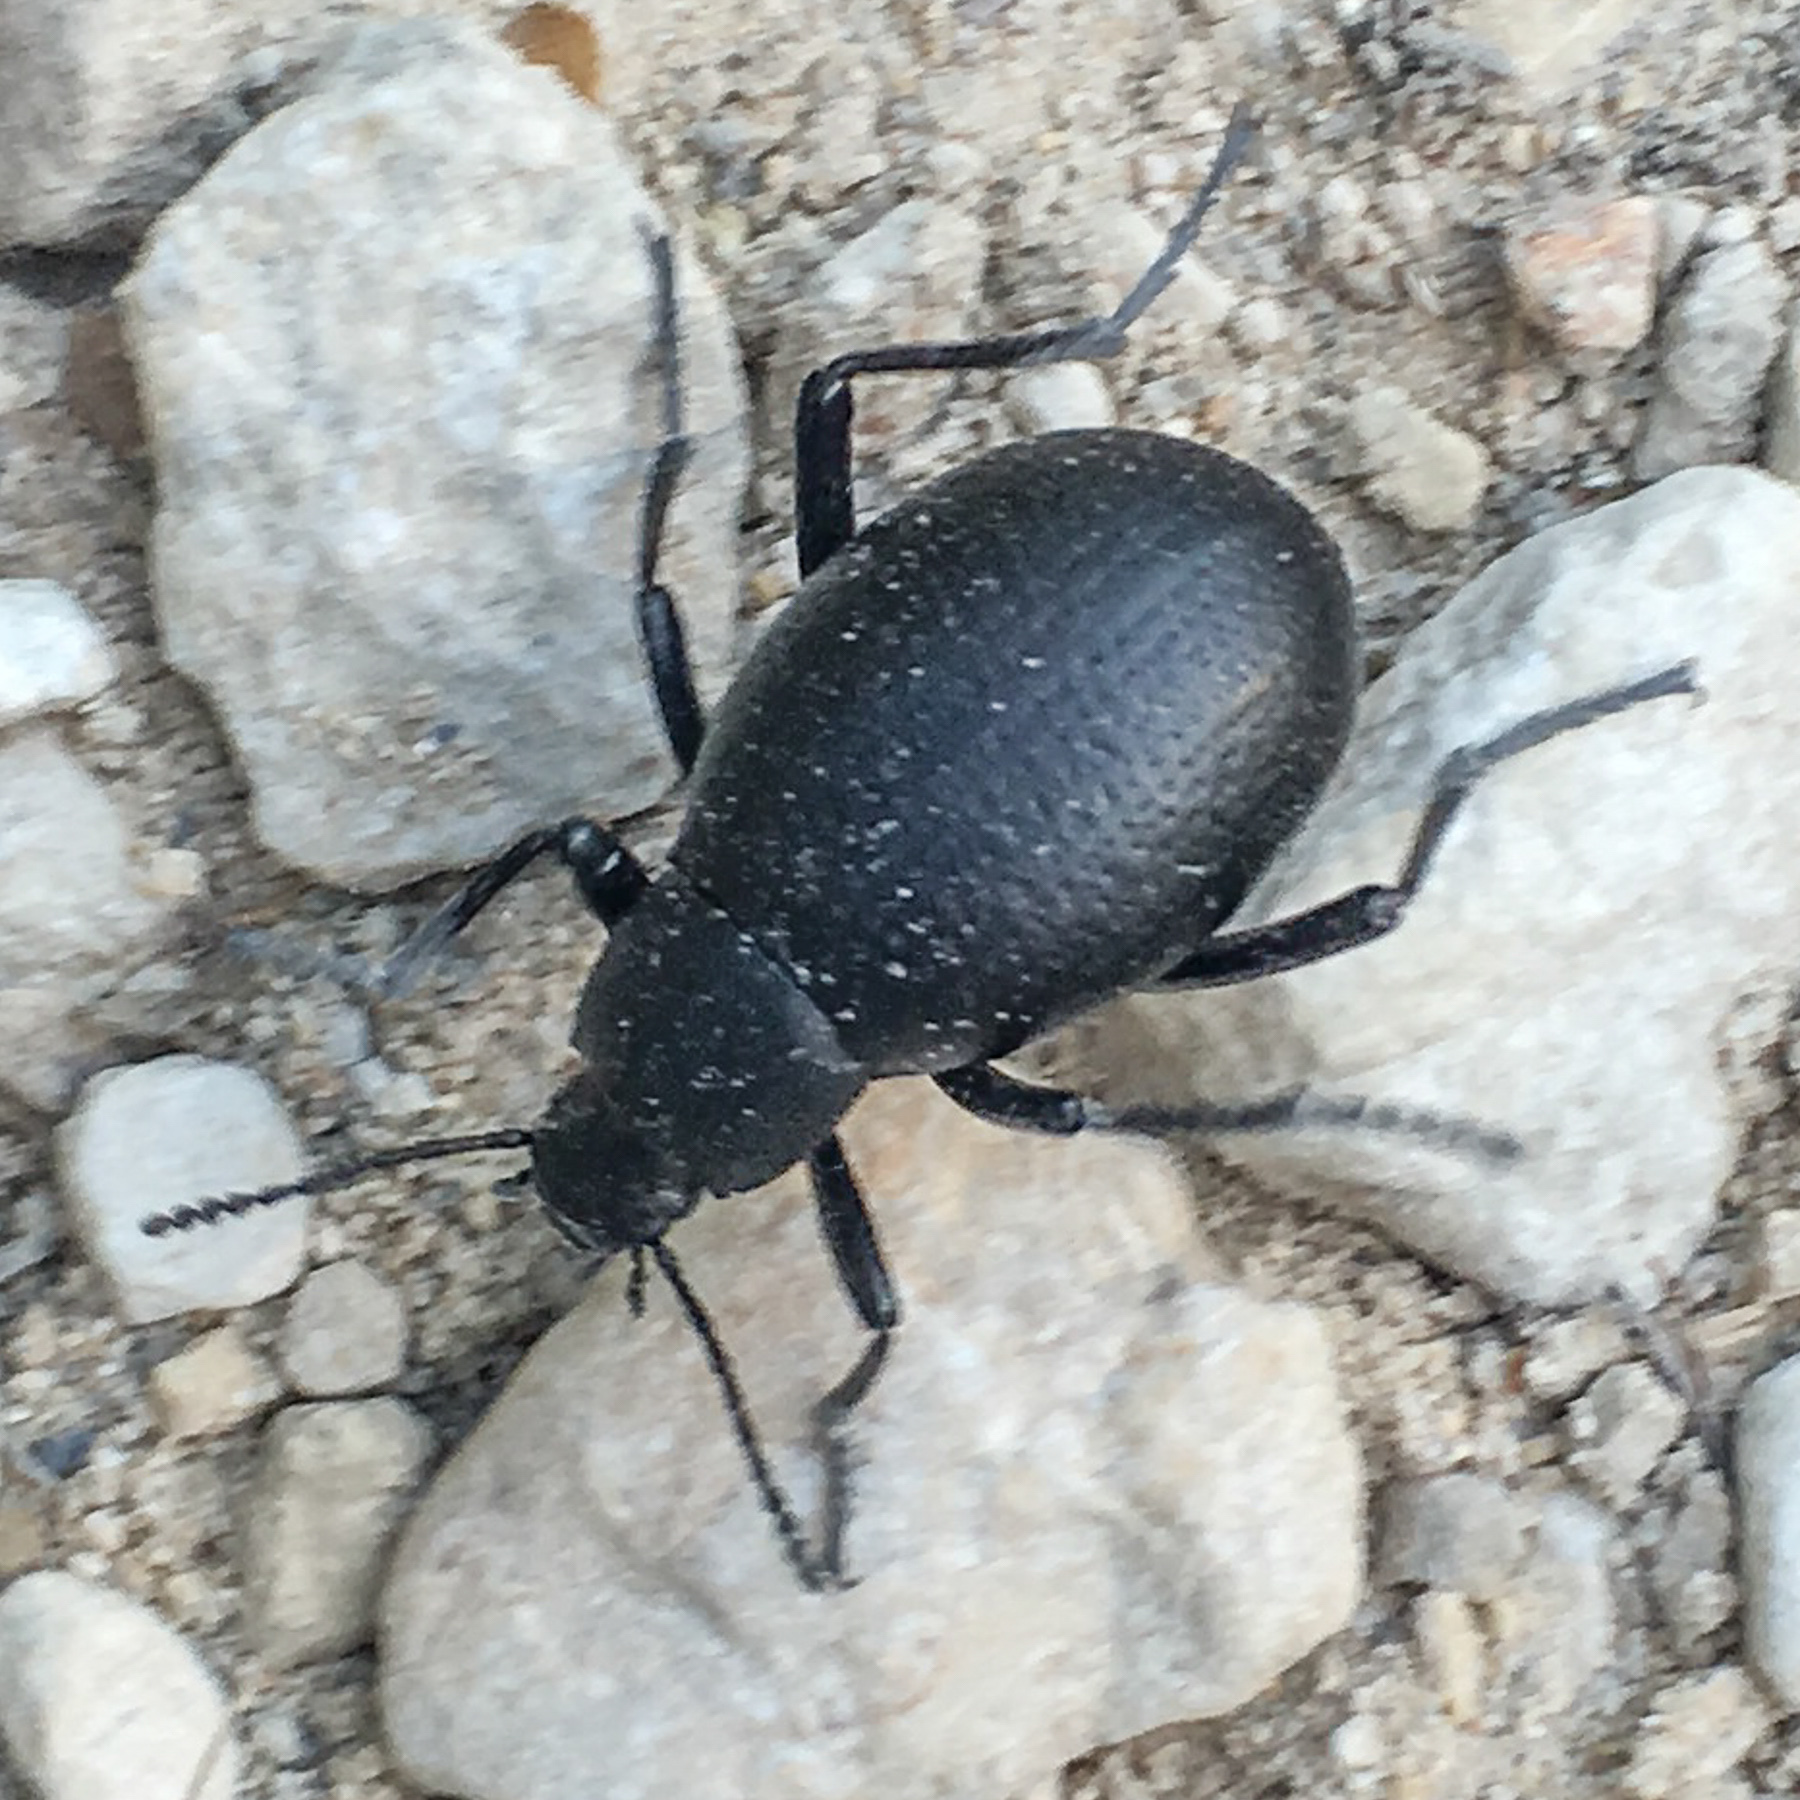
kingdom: Animalia
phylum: Arthropoda
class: Insecta
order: Coleoptera
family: Tenebrionidae
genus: Eleodes
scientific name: Eleodes goryi
